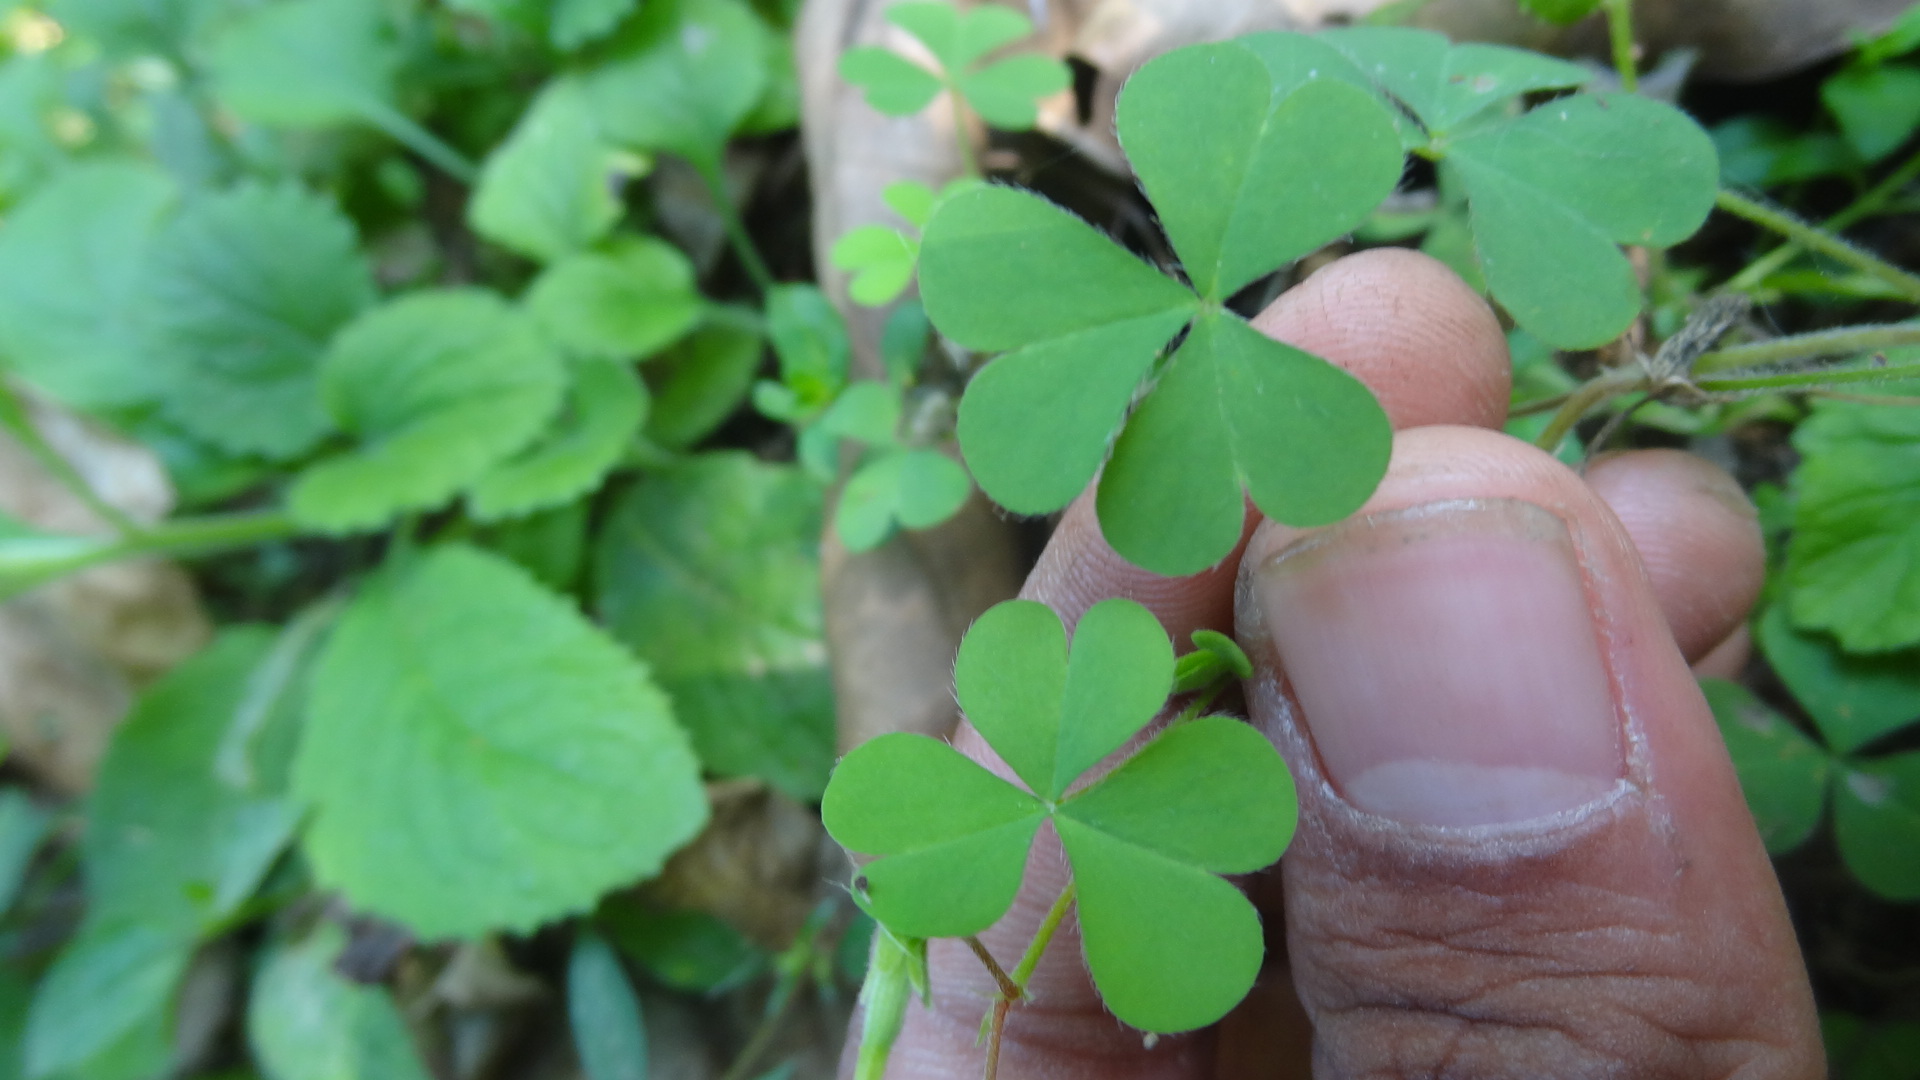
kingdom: Plantae
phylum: Tracheophyta
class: Magnoliopsida
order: Oxalidales
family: Oxalidaceae
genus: Oxalis
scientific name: Oxalis corniculata
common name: Procumbent yellow-sorrel
